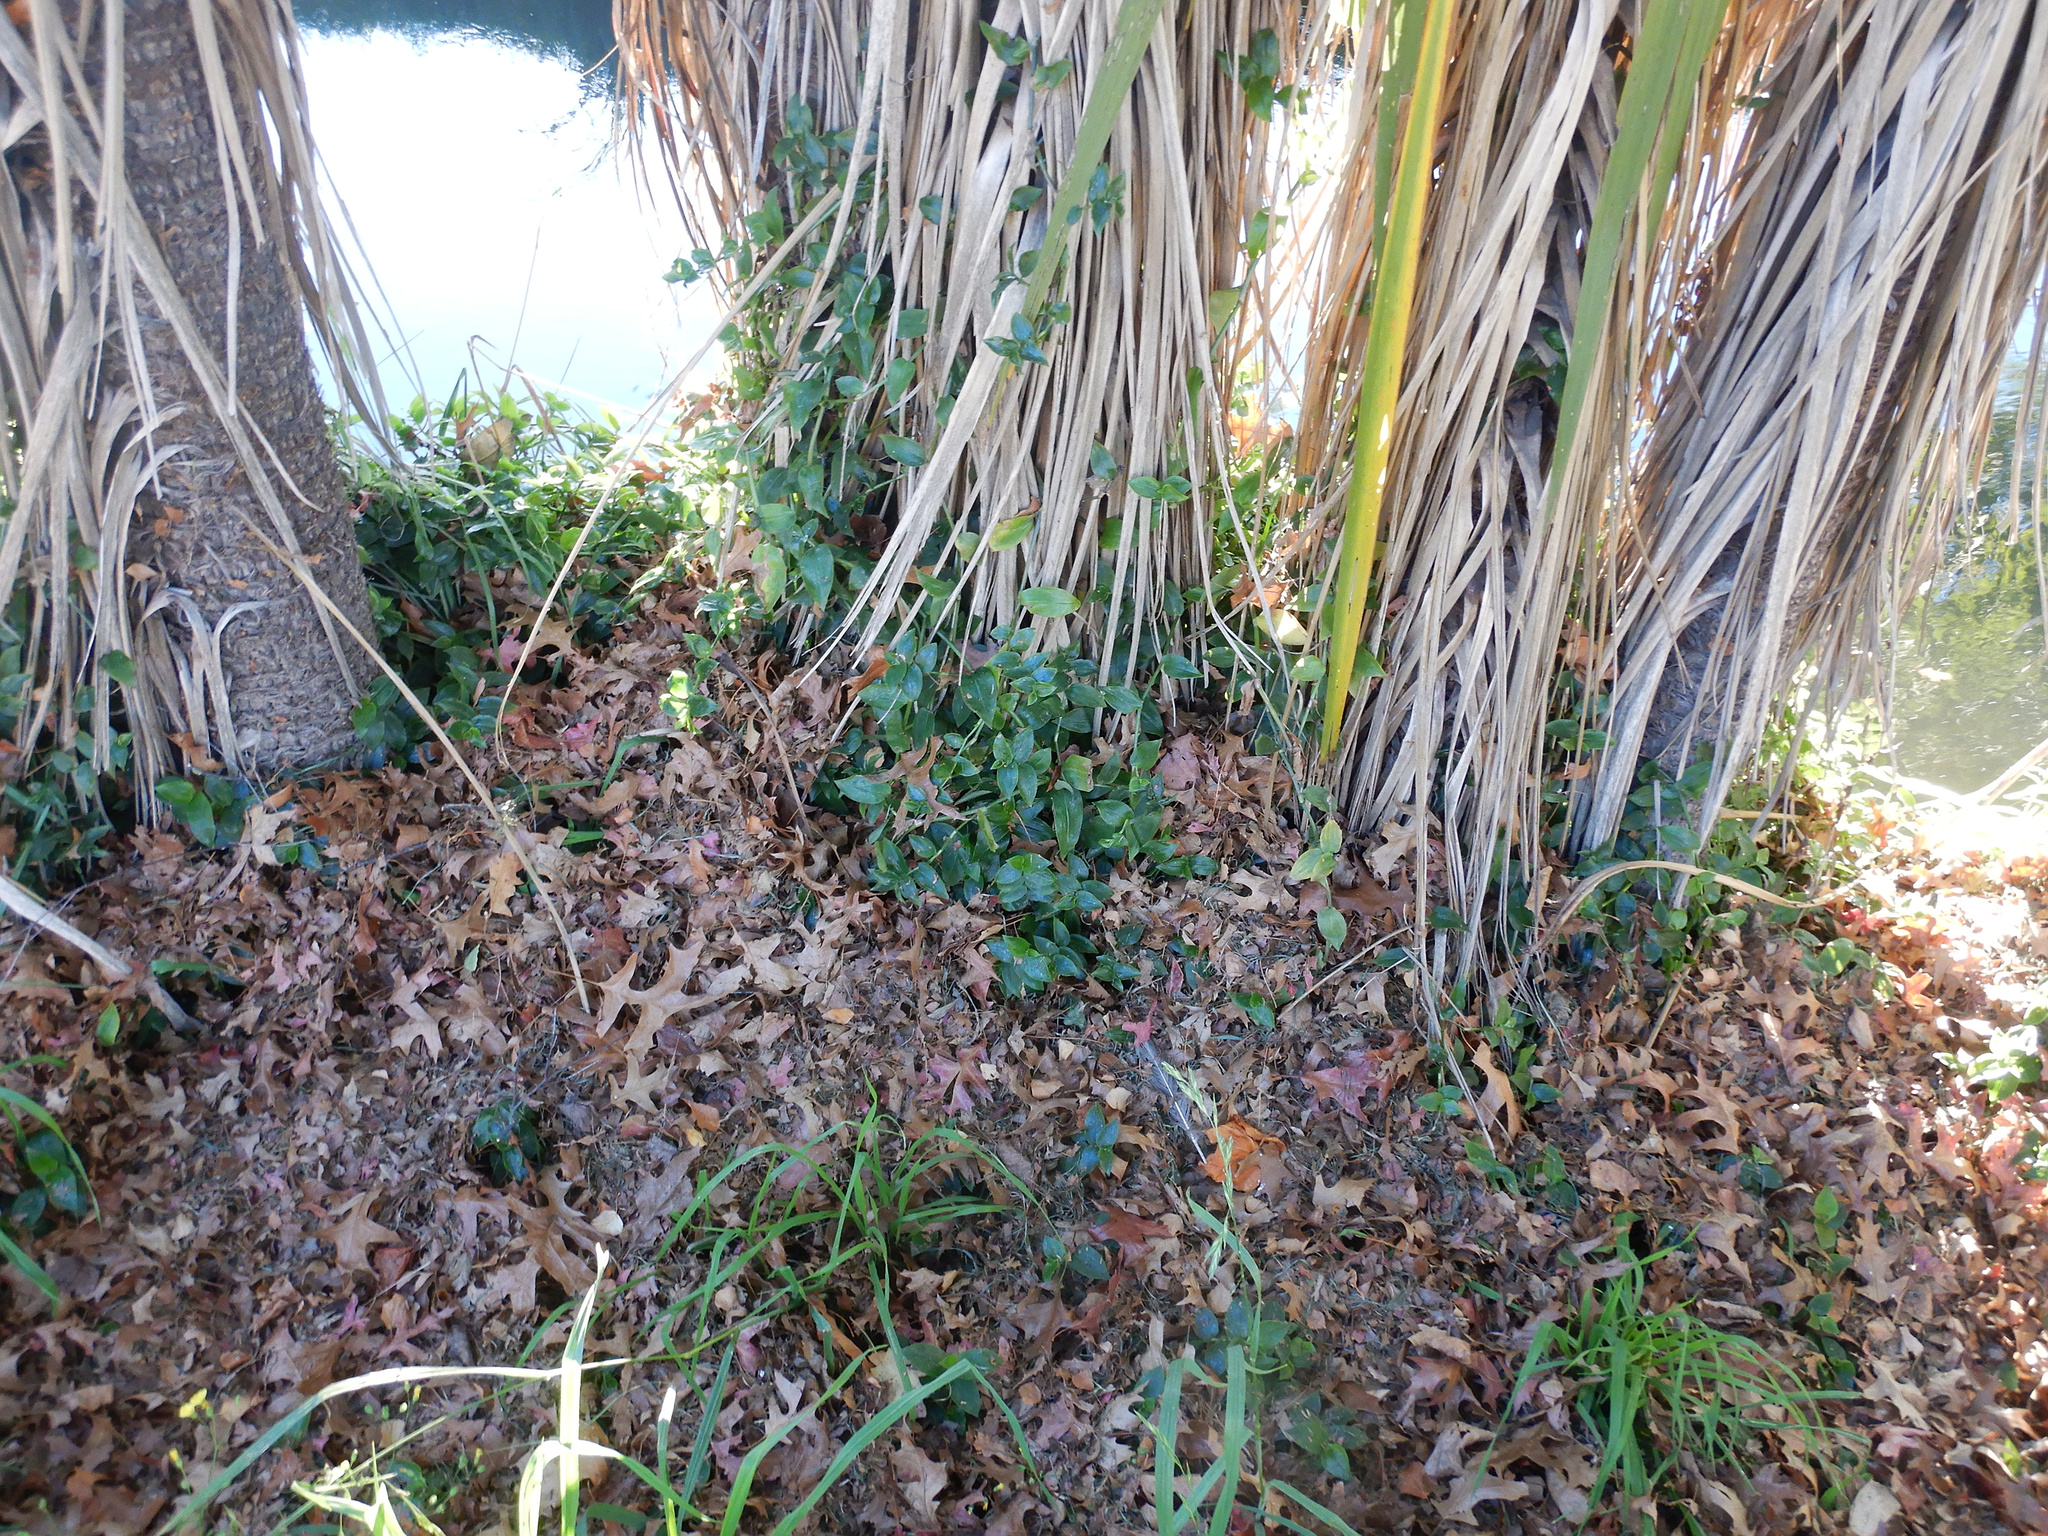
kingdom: Plantae
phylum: Tracheophyta
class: Liliopsida
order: Commelinales
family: Commelinaceae
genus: Tradescantia
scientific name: Tradescantia fluminensis
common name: Wandering-jew
